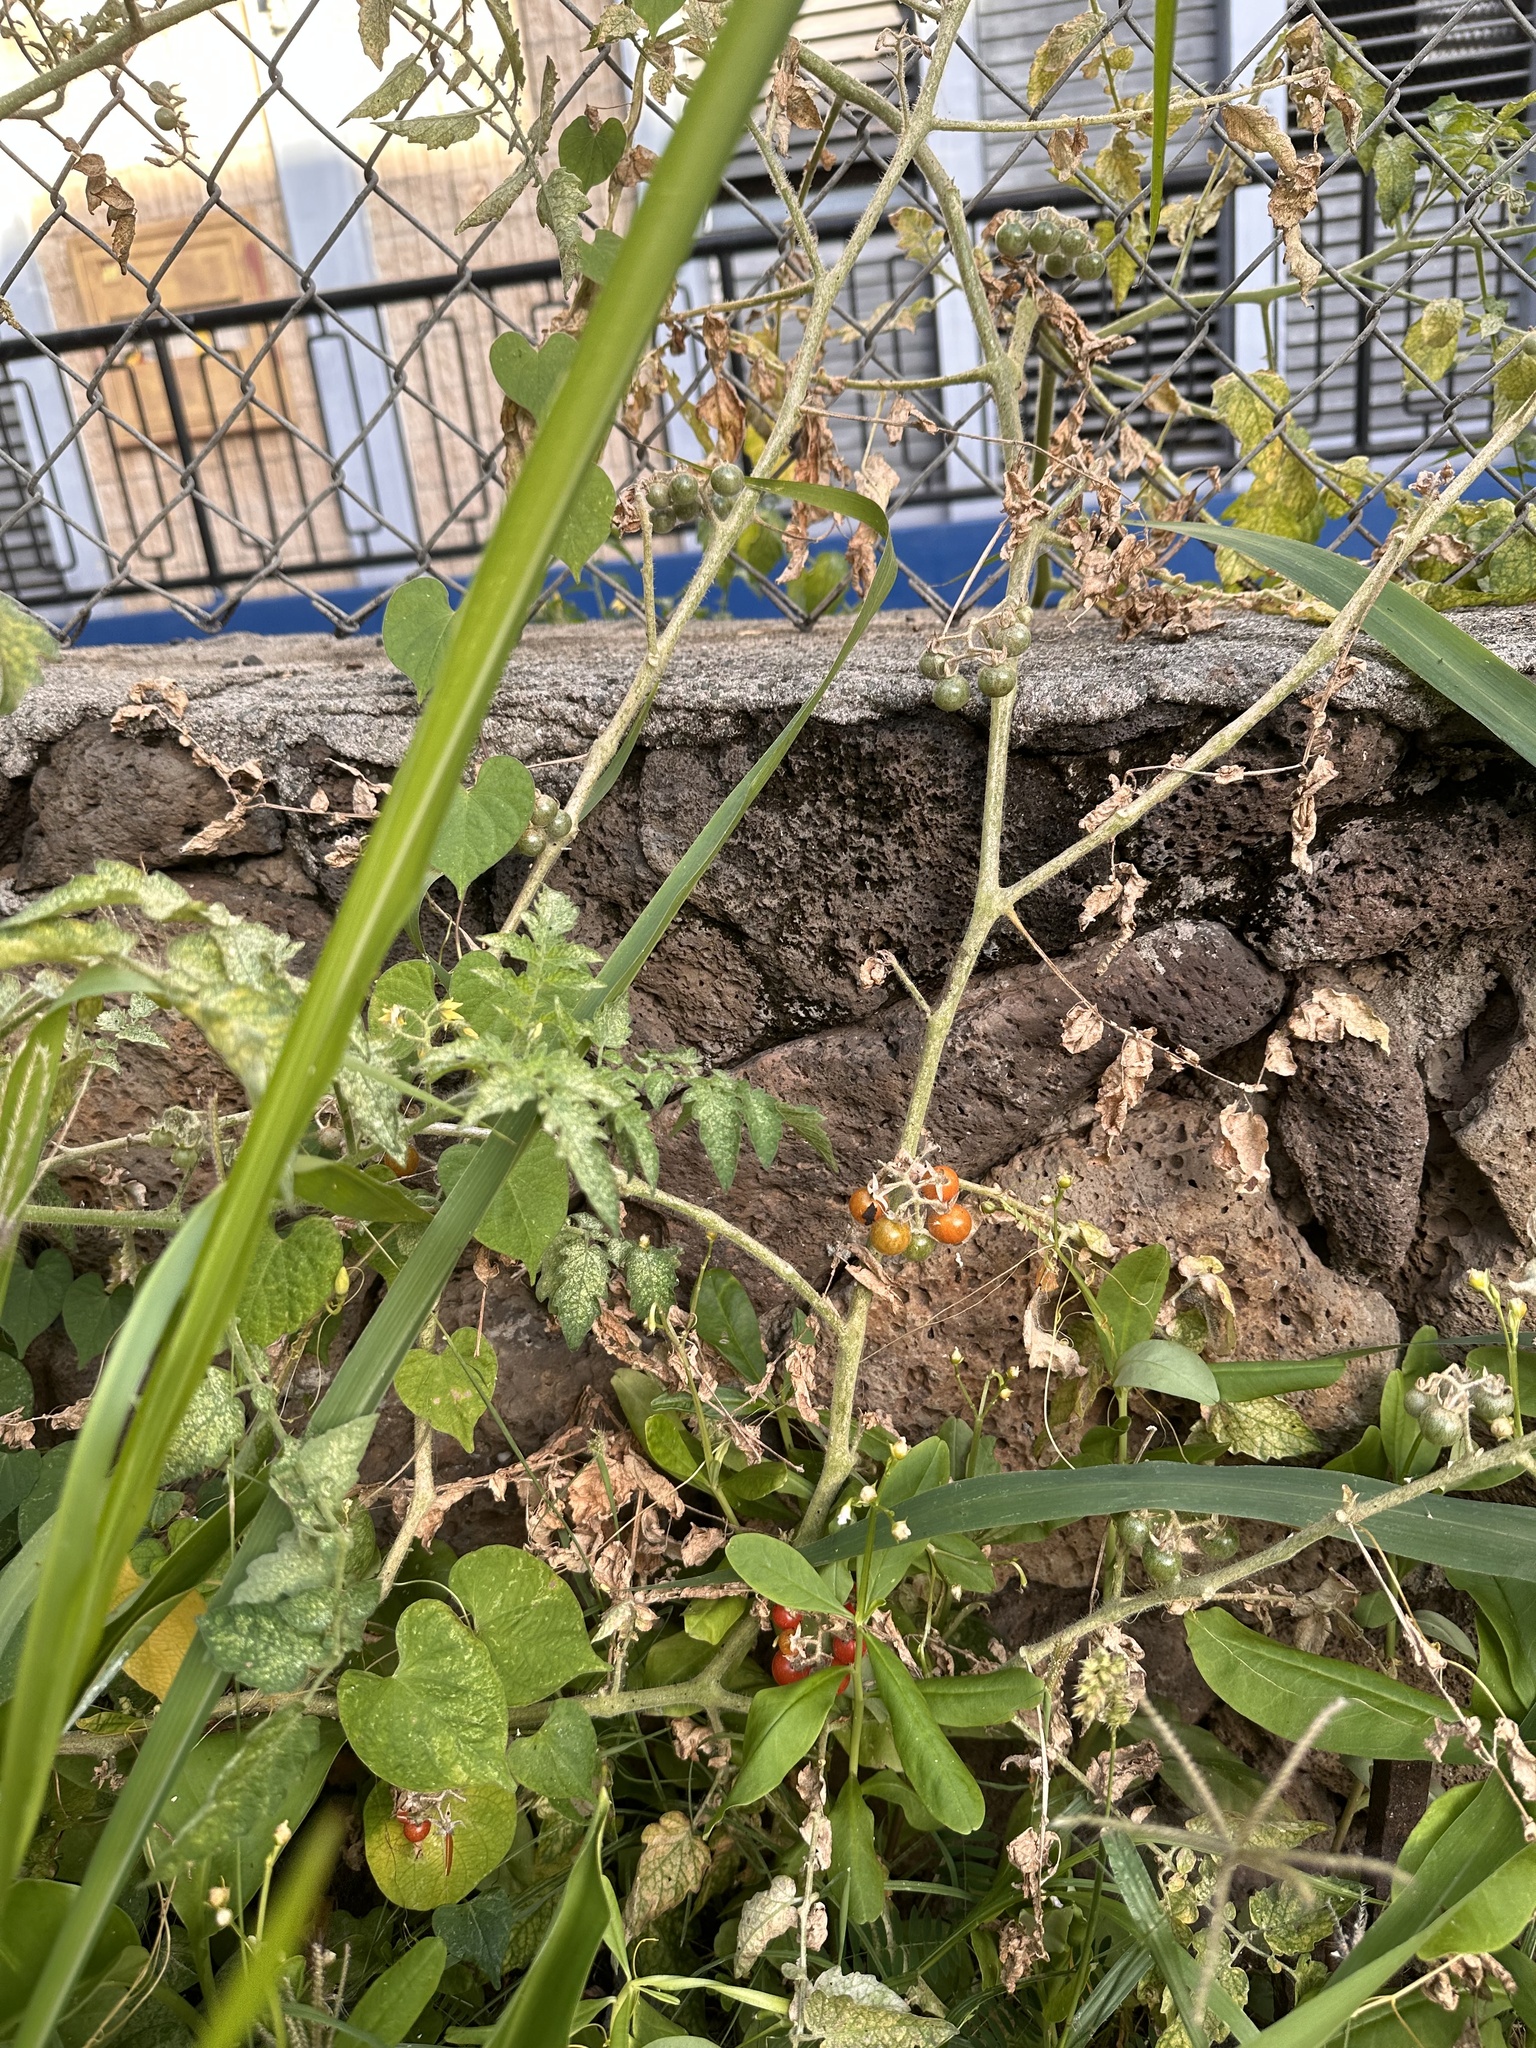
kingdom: Plantae
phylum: Tracheophyta
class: Magnoliopsida
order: Solanales
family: Solanaceae
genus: Solanum
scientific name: Solanum lycopersicum
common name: Garden tomato
